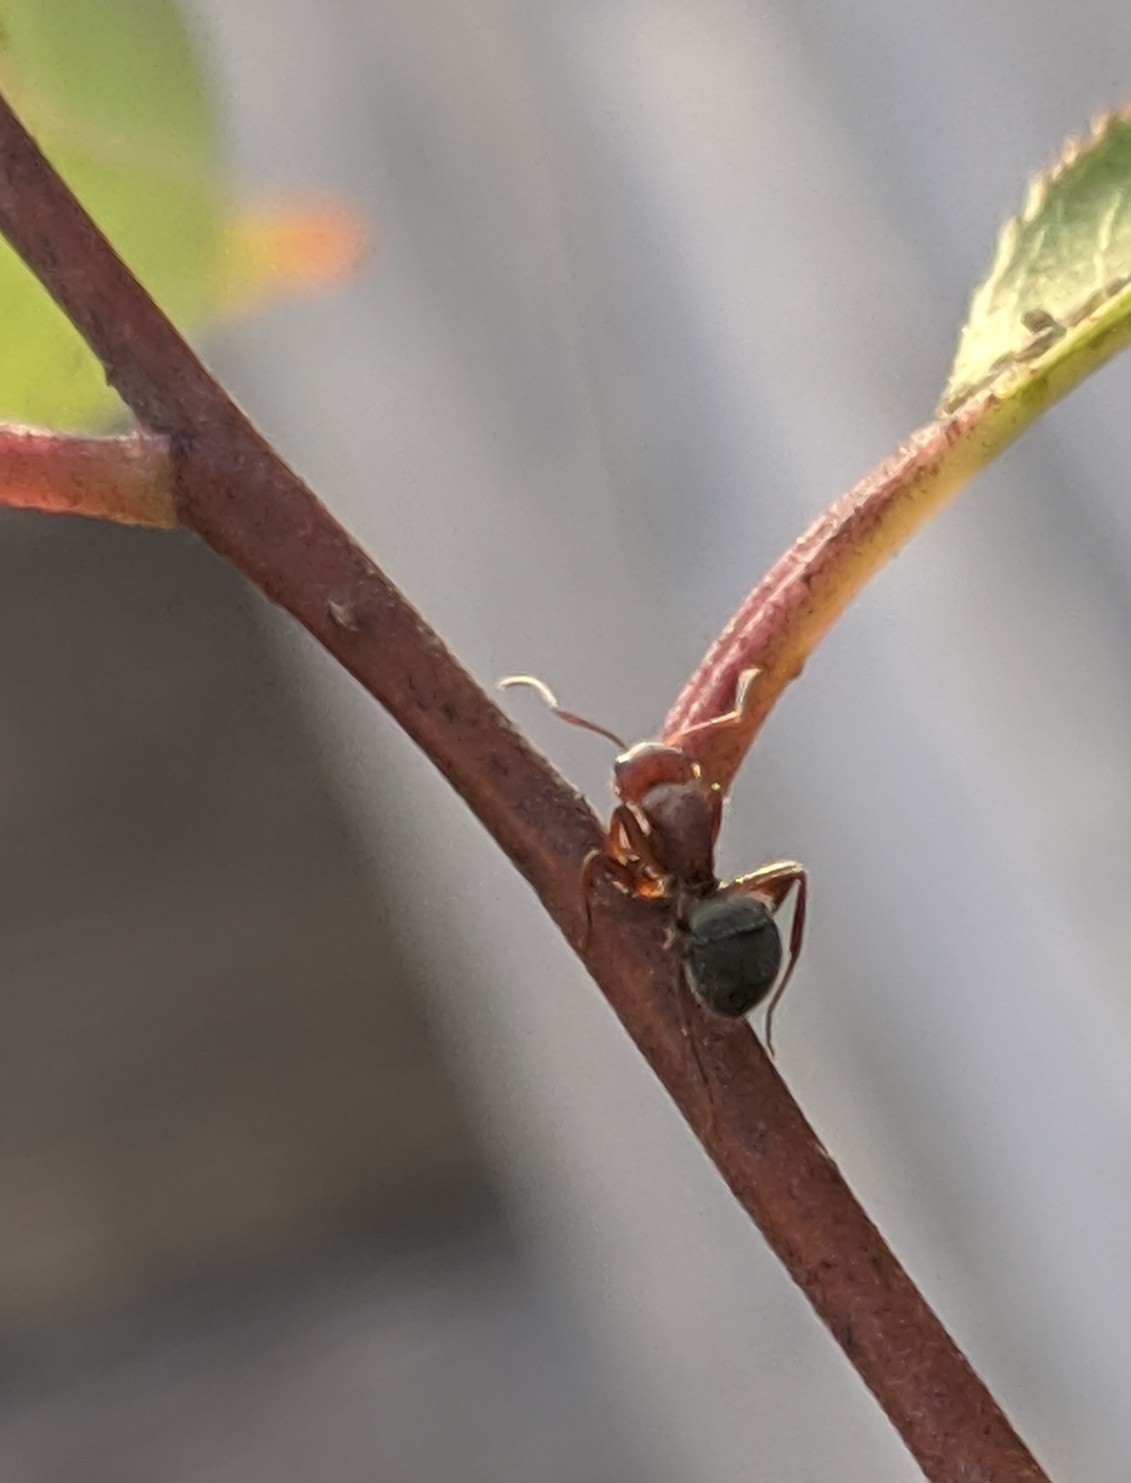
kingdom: Animalia
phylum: Arthropoda
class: Insecta
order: Hymenoptera
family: Formicidae
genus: Camponotus
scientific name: Camponotus planatus
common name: Compact carpenter ant
